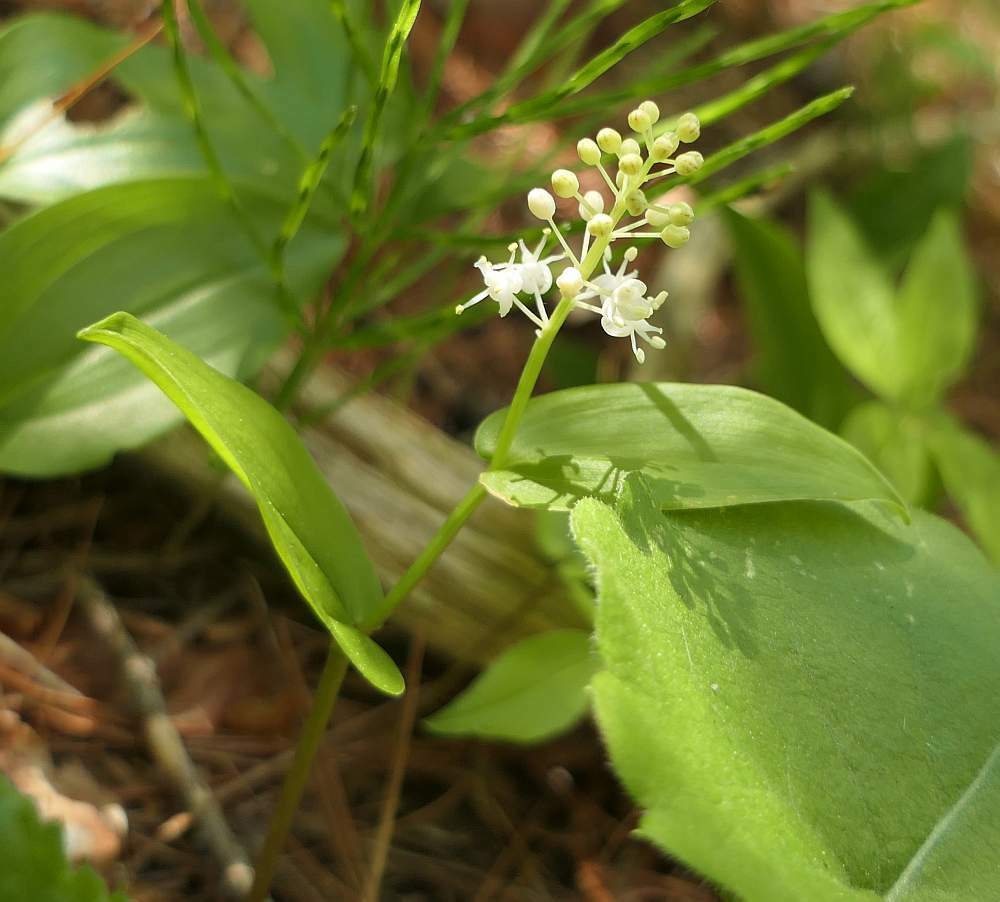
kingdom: Plantae
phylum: Tracheophyta
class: Liliopsida
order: Asparagales
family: Asparagaceae
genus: Maianthemum
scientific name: Maianthemum canadense
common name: False lily-of-the-valley
